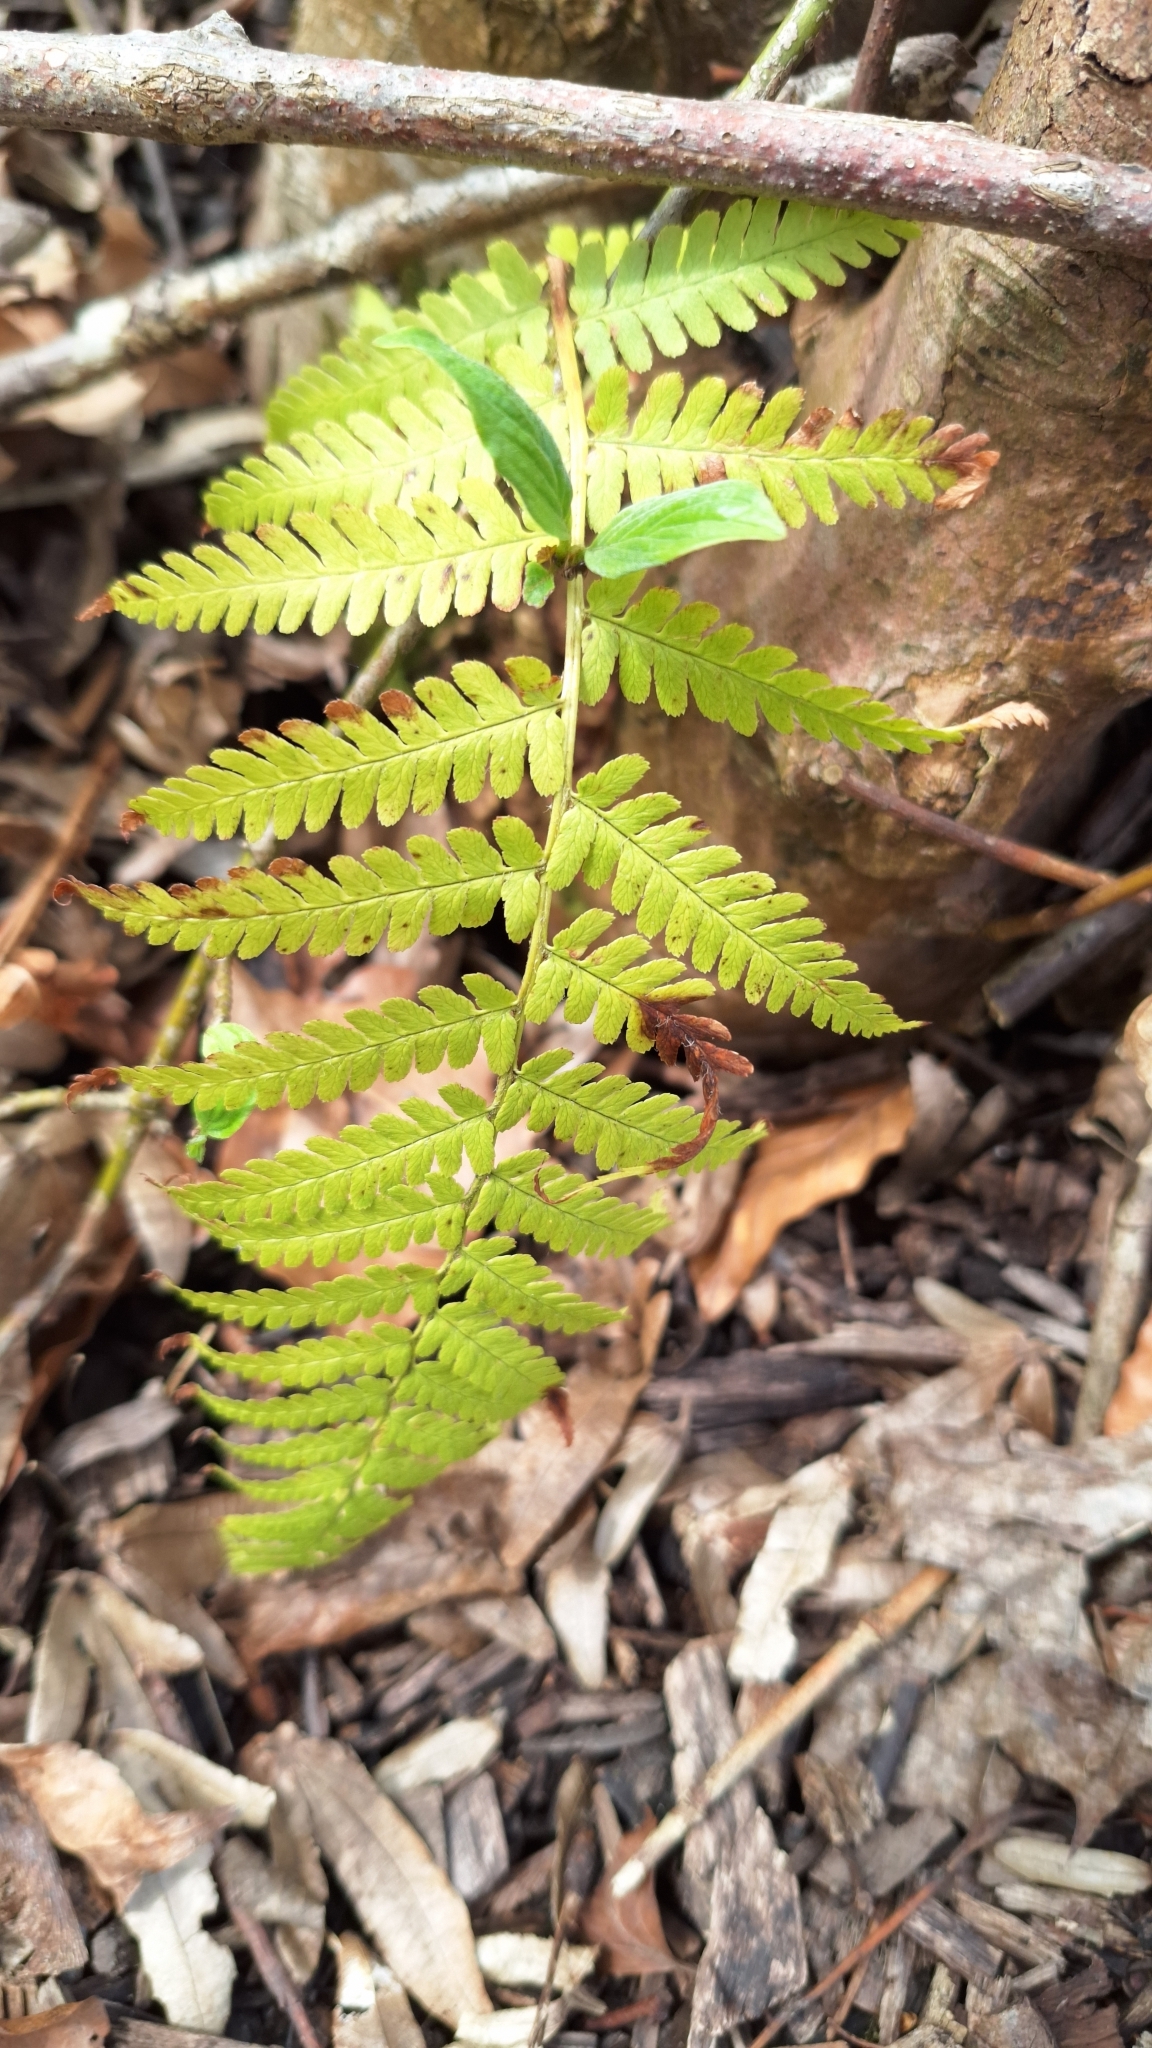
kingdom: Plantae
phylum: Tracheophyta
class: Polypodiopsida
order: Polypodiales
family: Dryopteridaceae
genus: Dryopteris
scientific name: Dryopteris filix-mas
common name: Male fern
